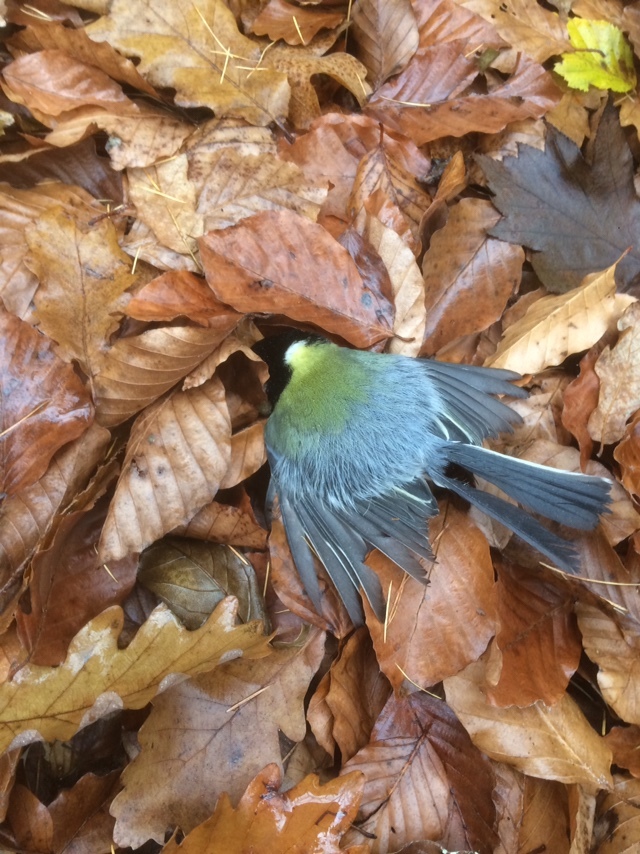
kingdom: Animalia
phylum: Chordata
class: Aves
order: Passeriformes
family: Paridae
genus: Parus
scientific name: Parus major
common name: Great tit
